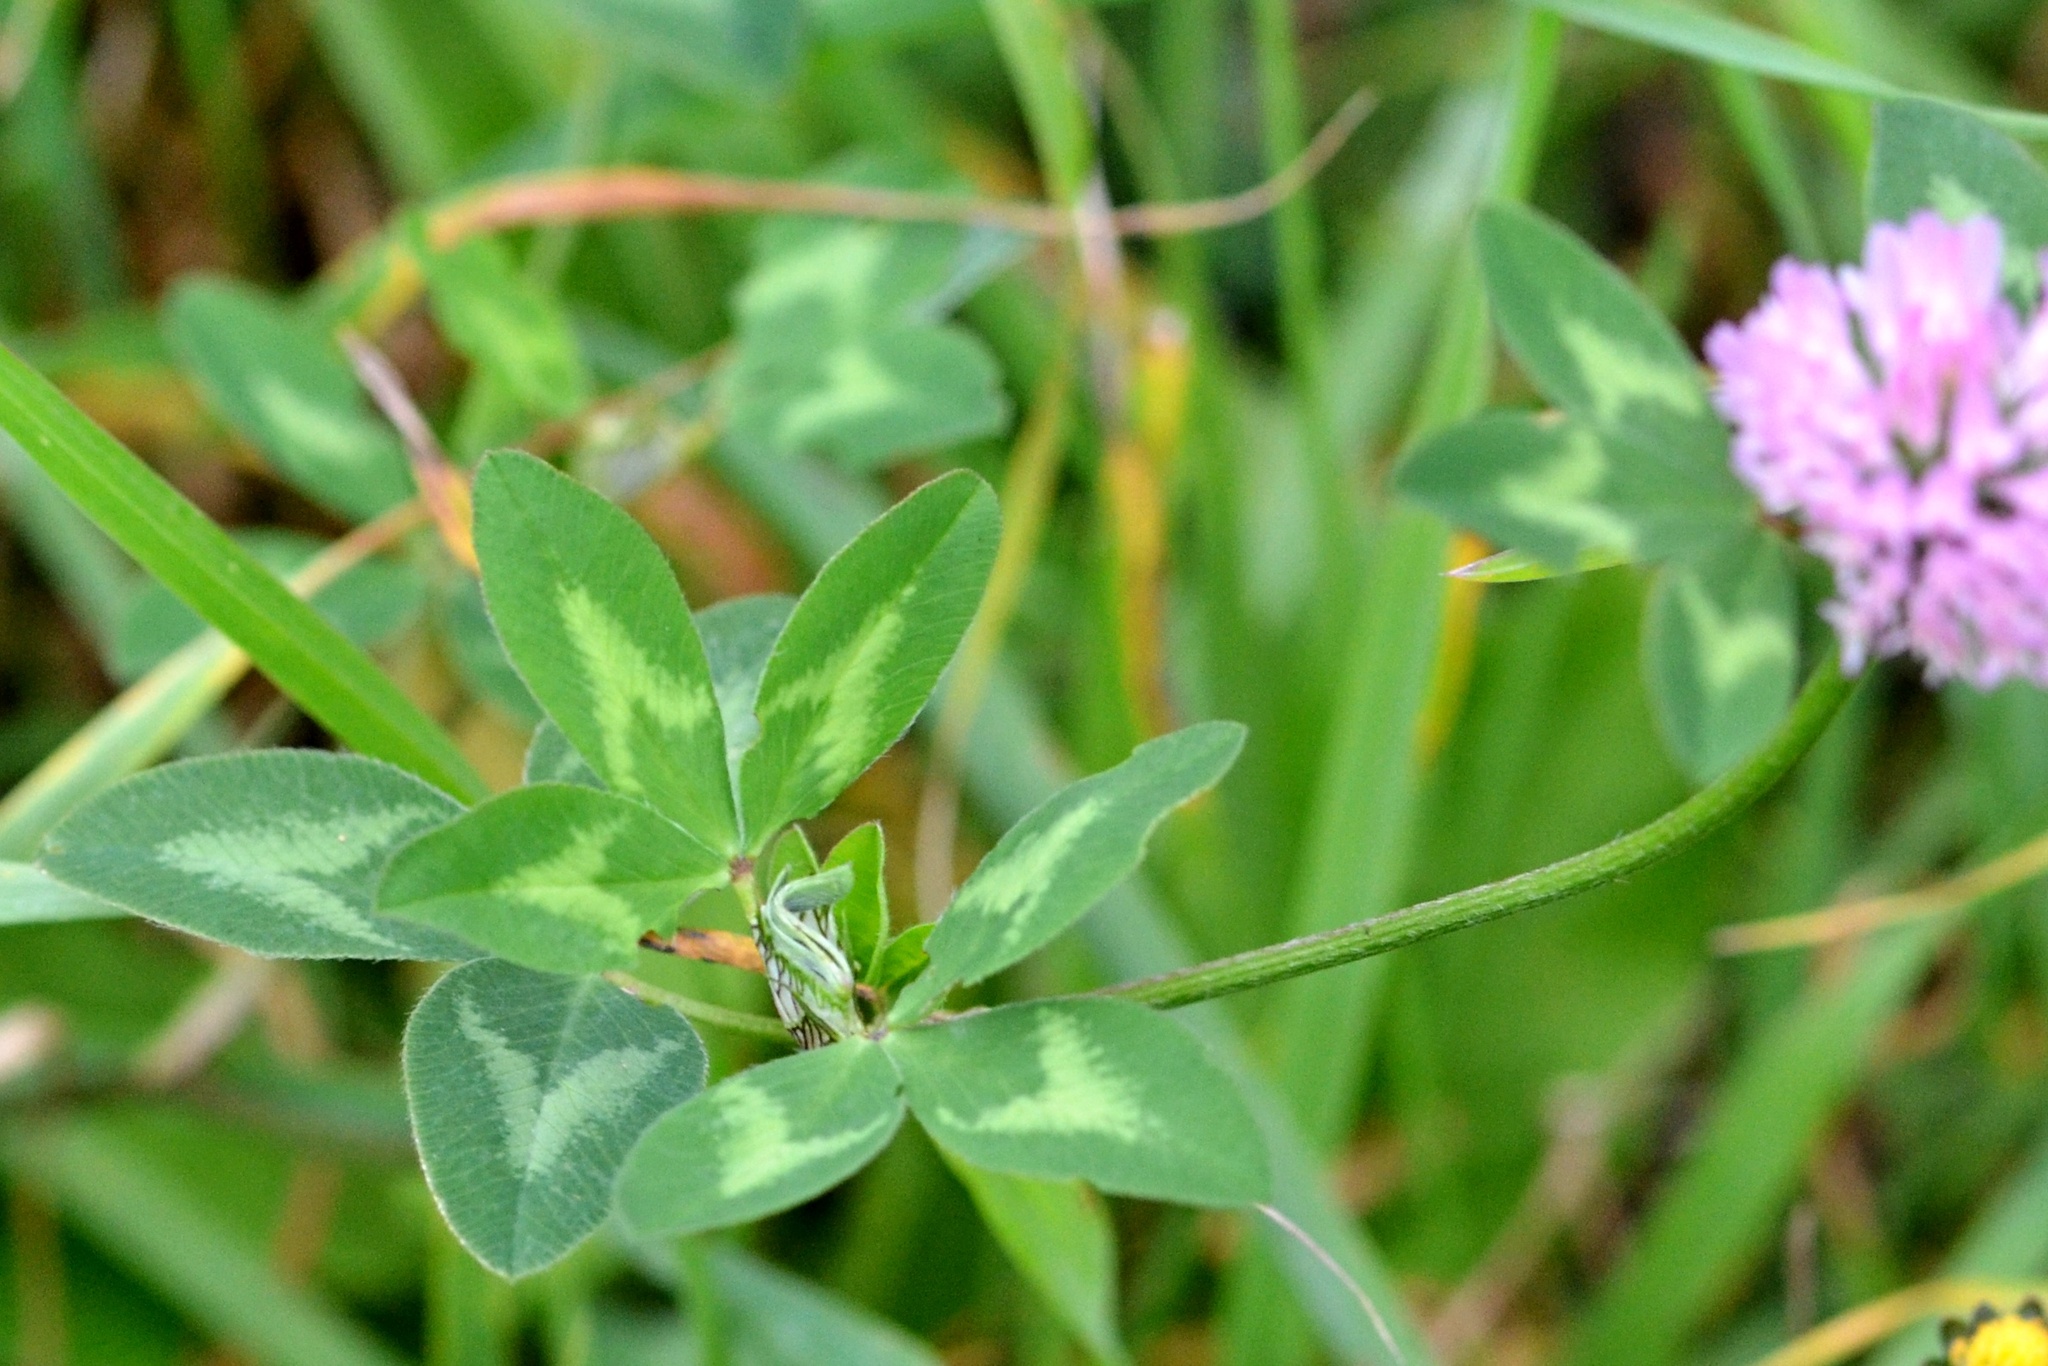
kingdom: Plantae
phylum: Tracheophyta
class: Magnoliopsida
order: Fabales
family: Fabaceae
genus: Trifolium
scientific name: Trifolium pratense
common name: Red clover
